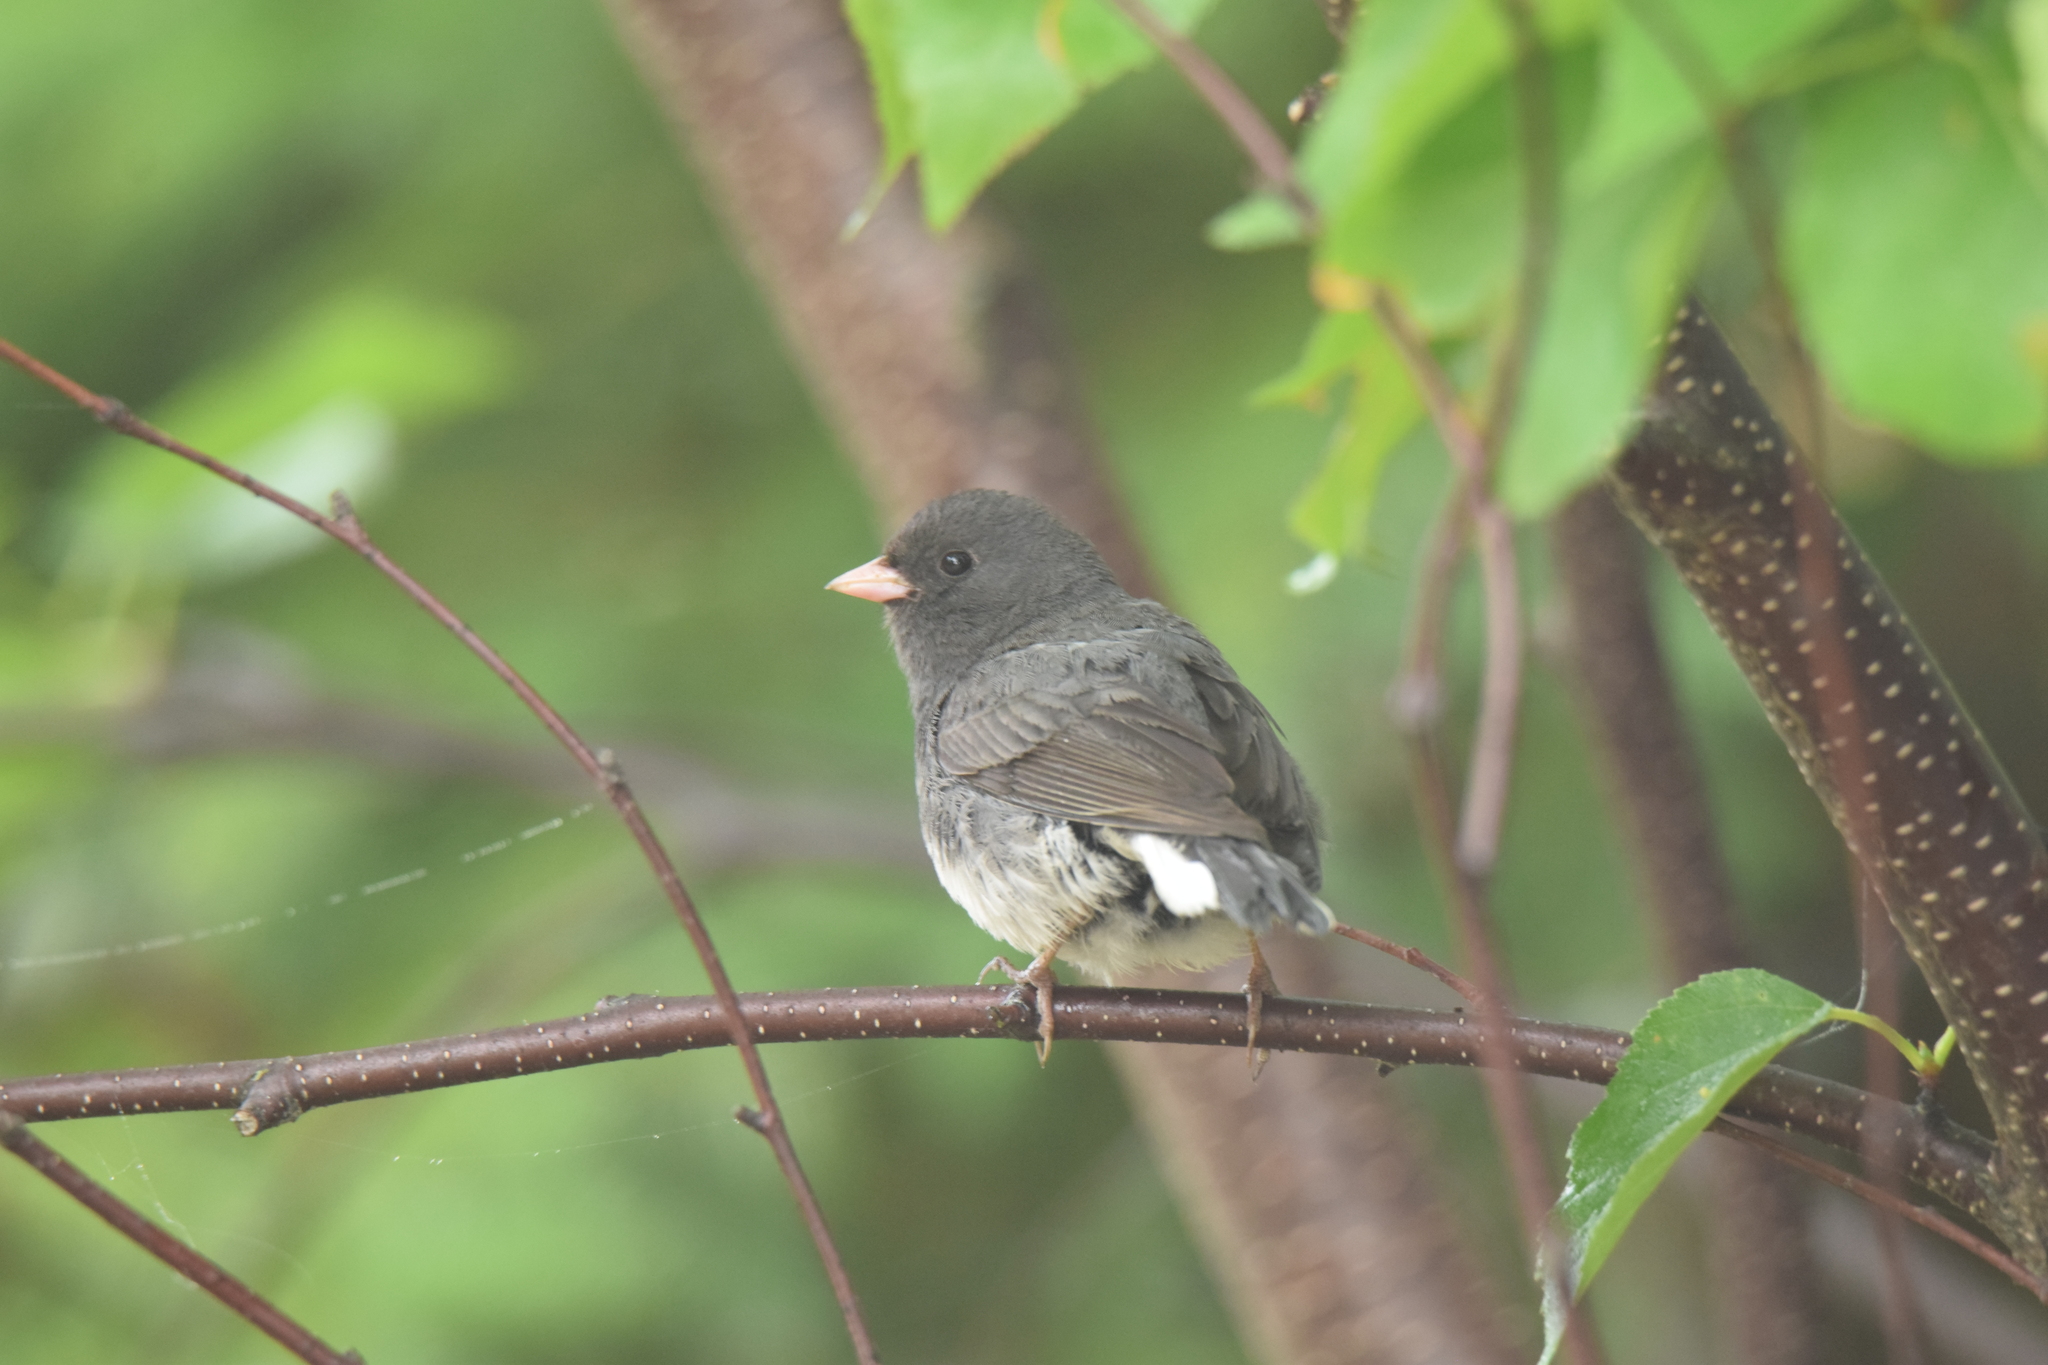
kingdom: Animalia
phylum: Chordata
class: Aves
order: Passeriformes
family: Passerellidae
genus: Junco
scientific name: Junco hyemalis
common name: Dark-eyed junco
